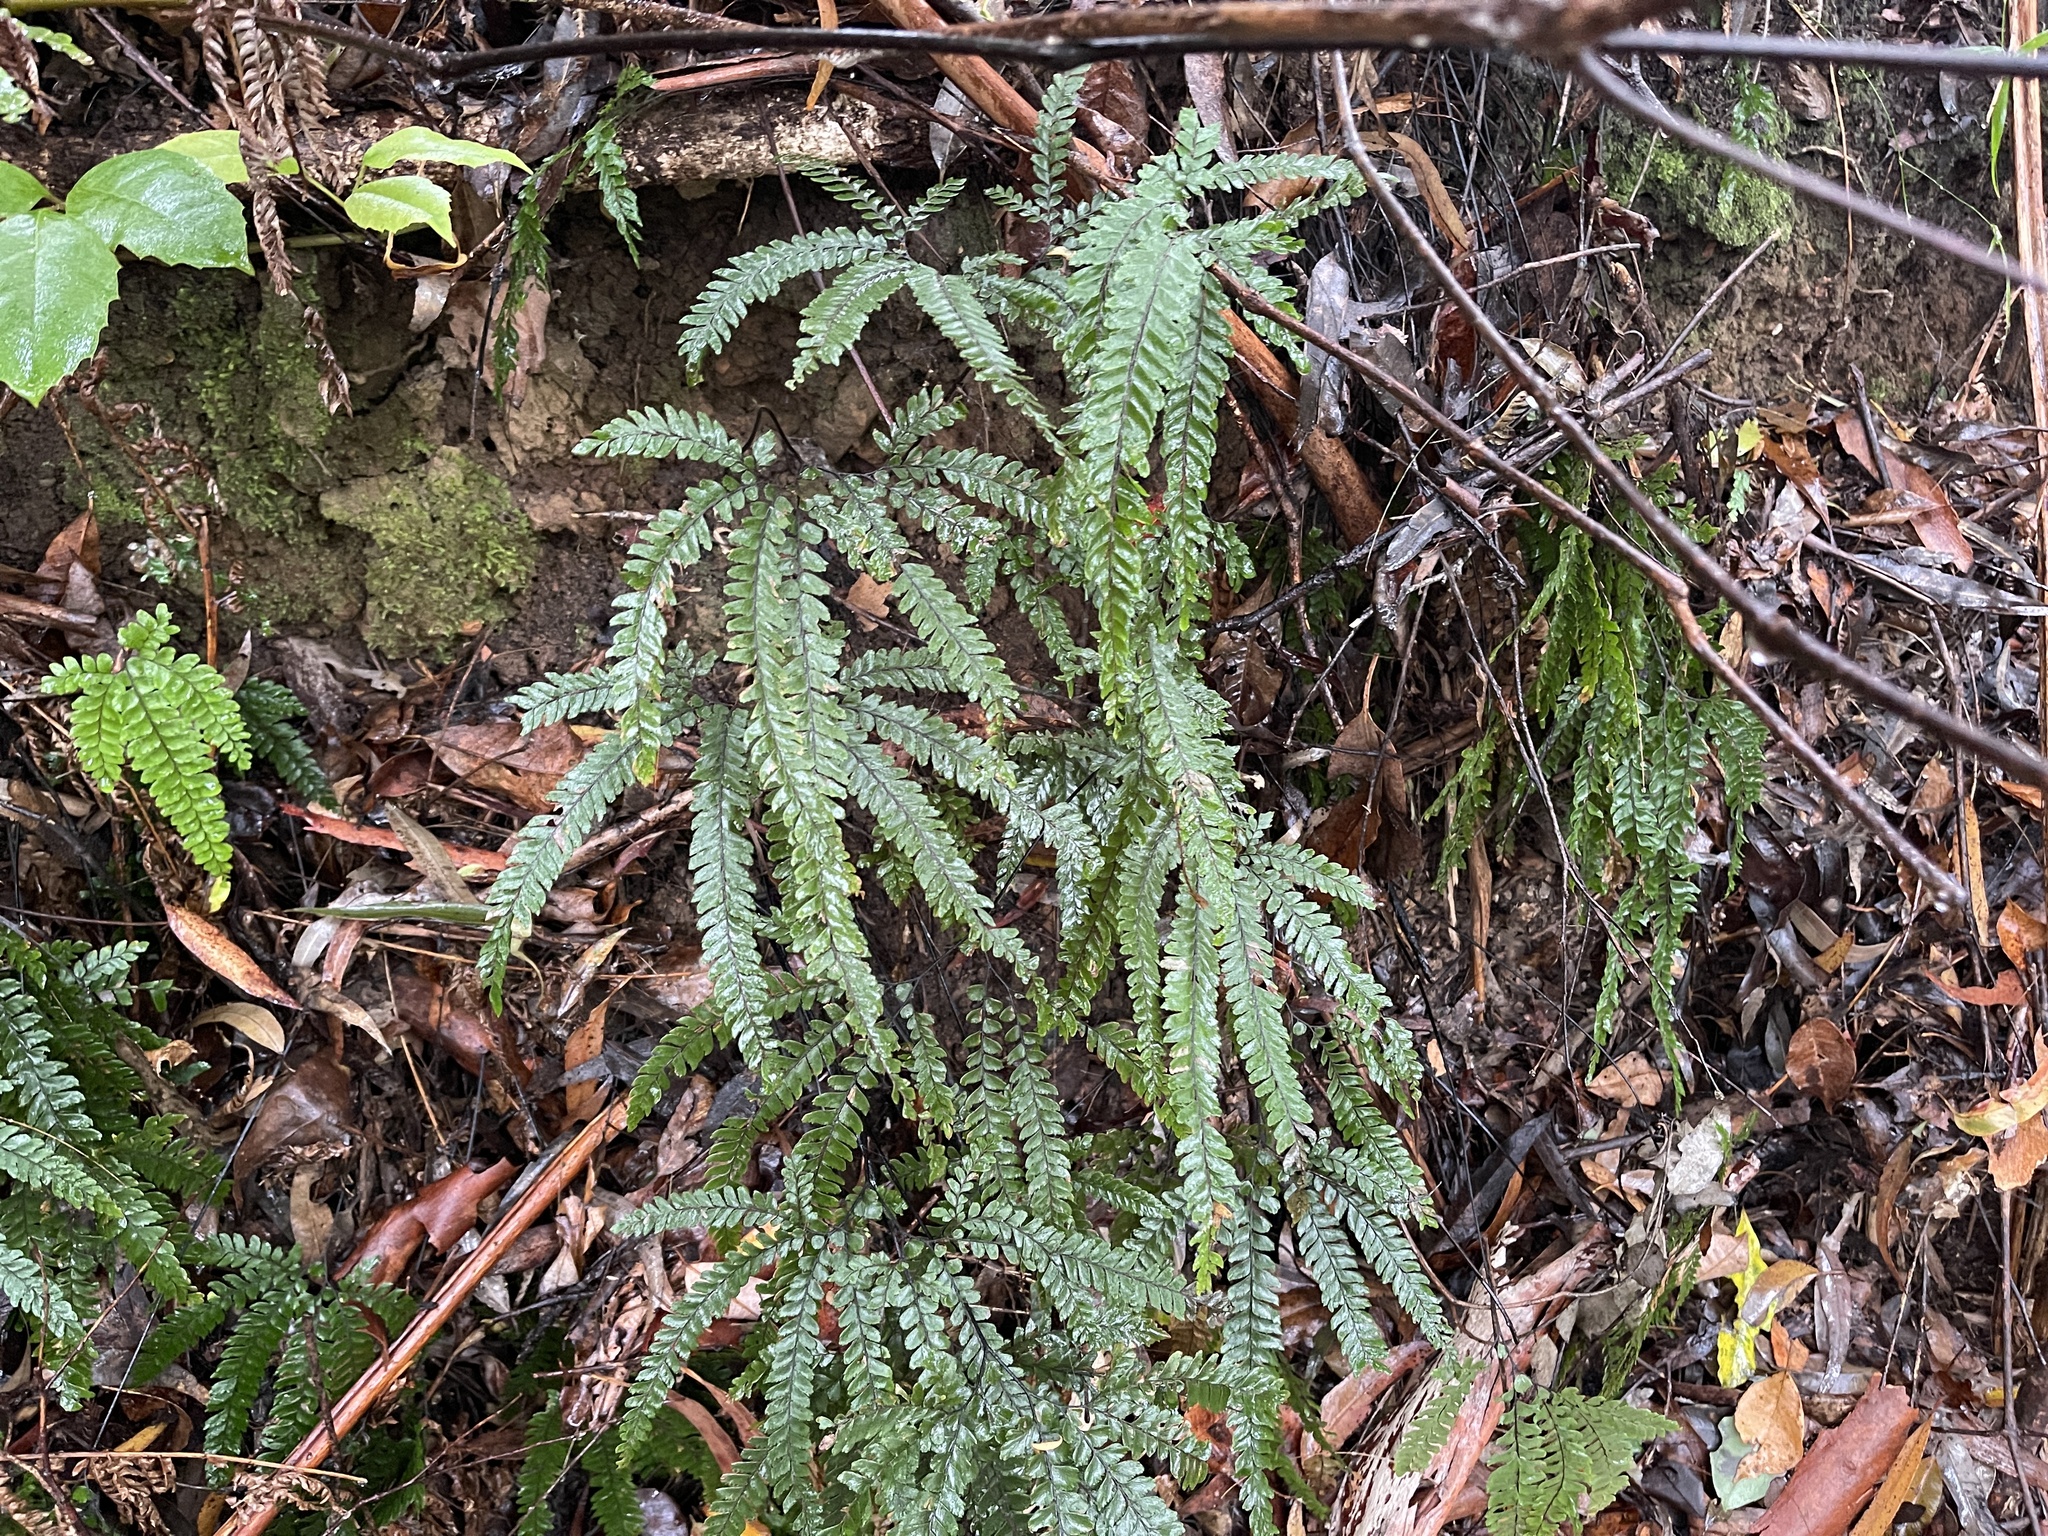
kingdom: Plantae
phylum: Tracheophyta
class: Polypodiopsida
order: Polypodiales
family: Pteridaceae
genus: Adiantum
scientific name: Adiantum hispidulum
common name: Rough maidenhair
